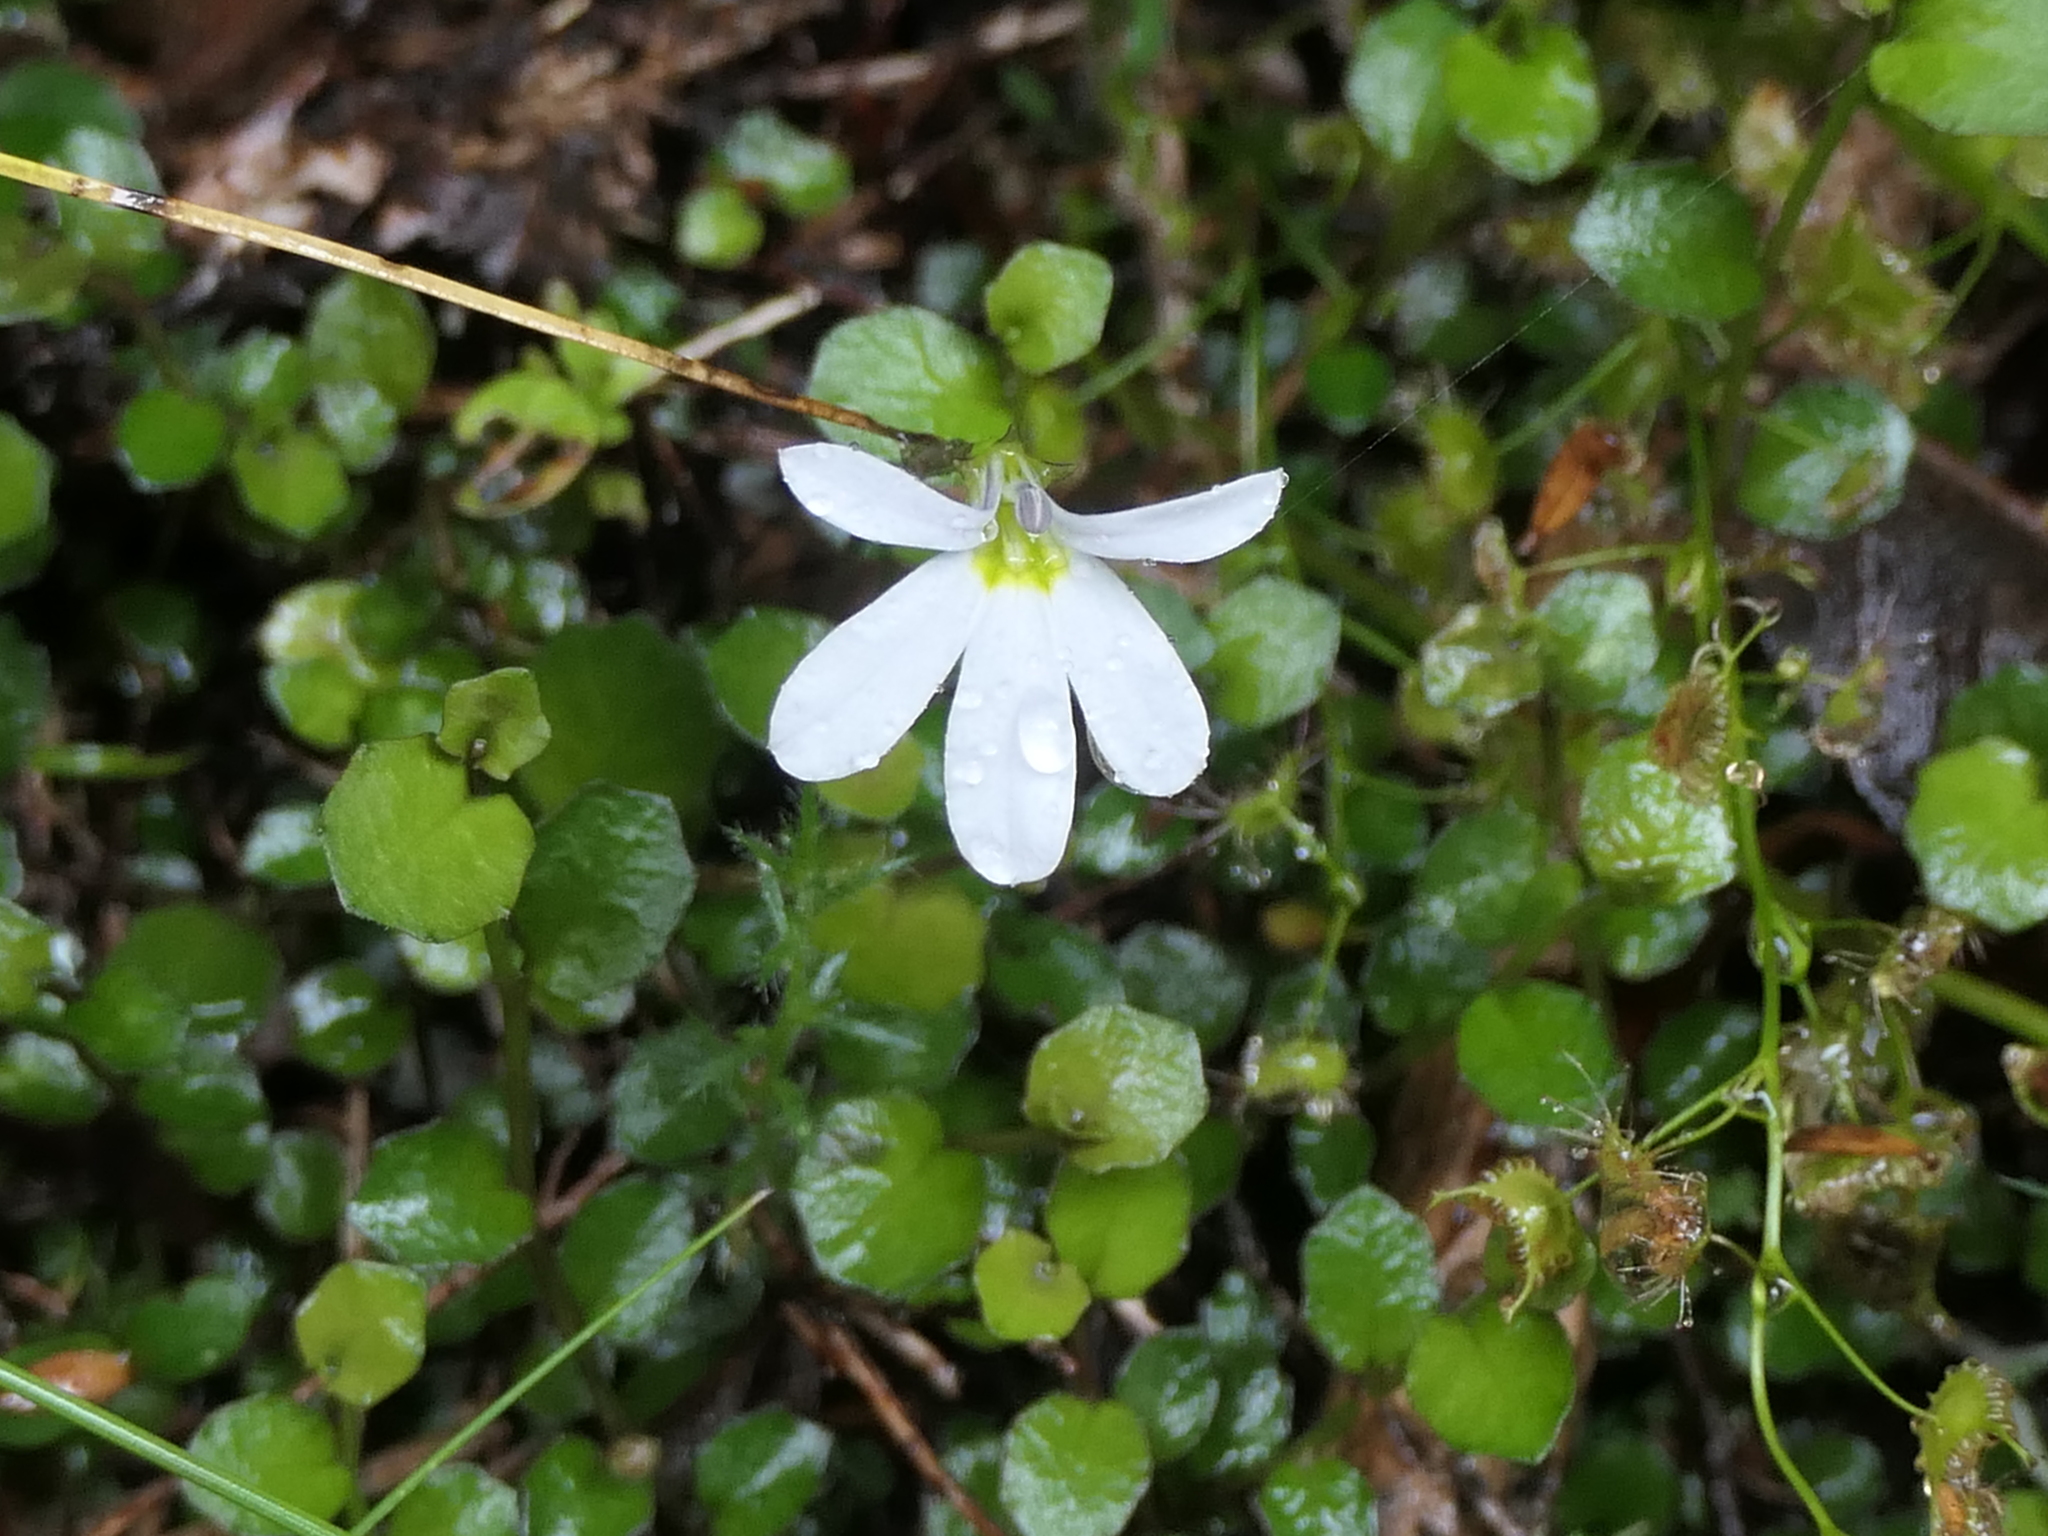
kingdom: Plantae
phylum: Tracheophyta
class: Magnoliopsida
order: Asterales
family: Campanulaceae
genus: Lobelia
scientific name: Lobelia angulata
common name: Lawn lobelia
